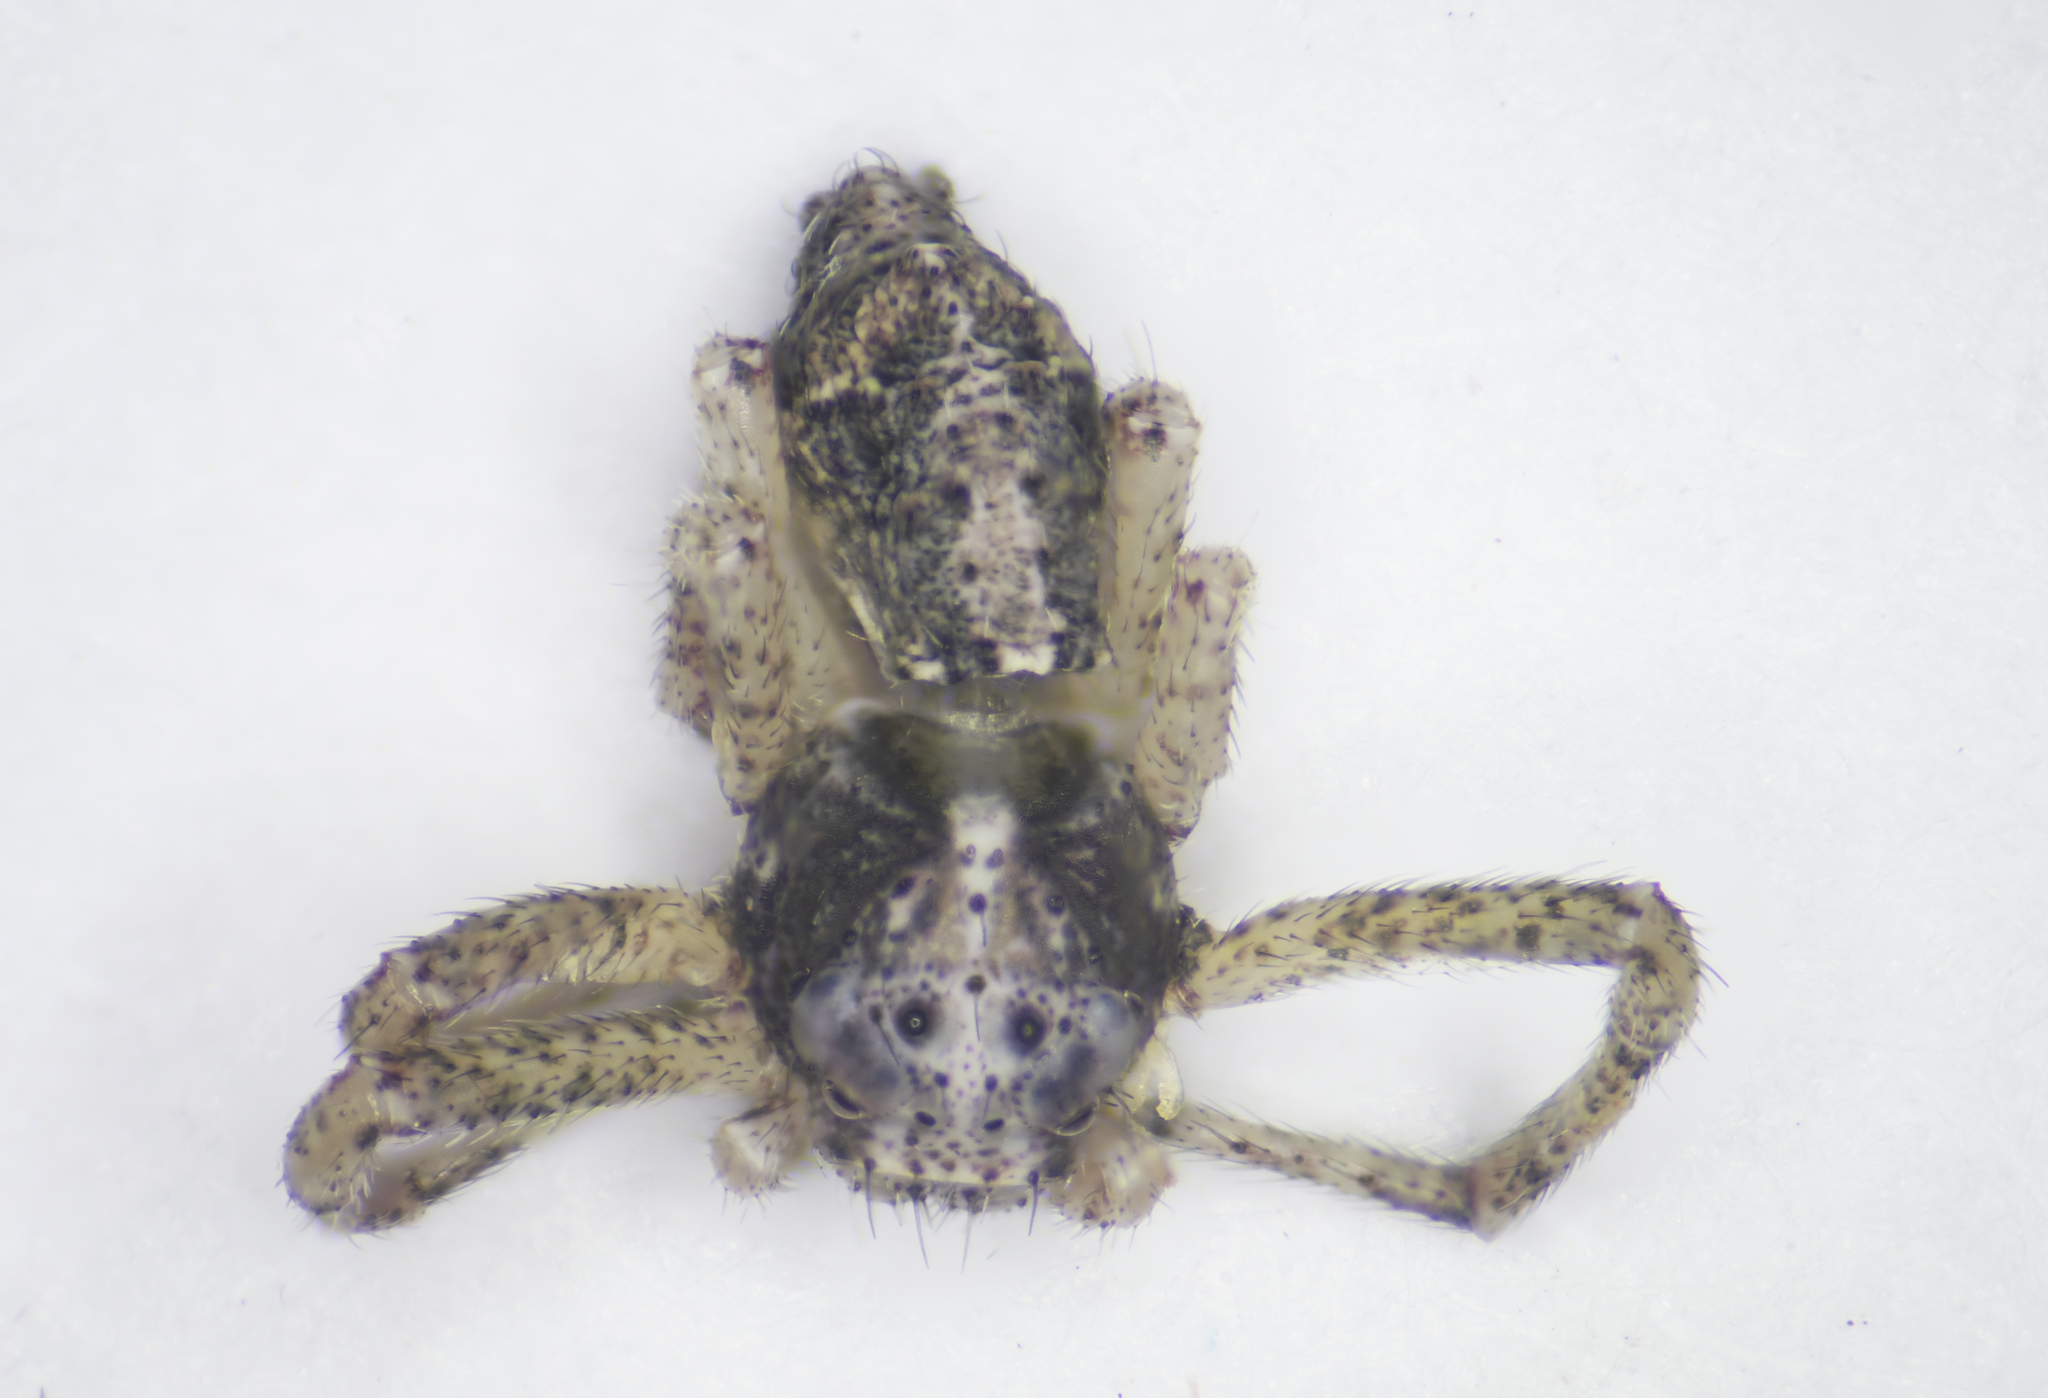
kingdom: Animalia
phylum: Arthropoda
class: Arachnida
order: Araneae
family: Thomisidae
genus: Tmarus
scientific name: Tmarus piger
